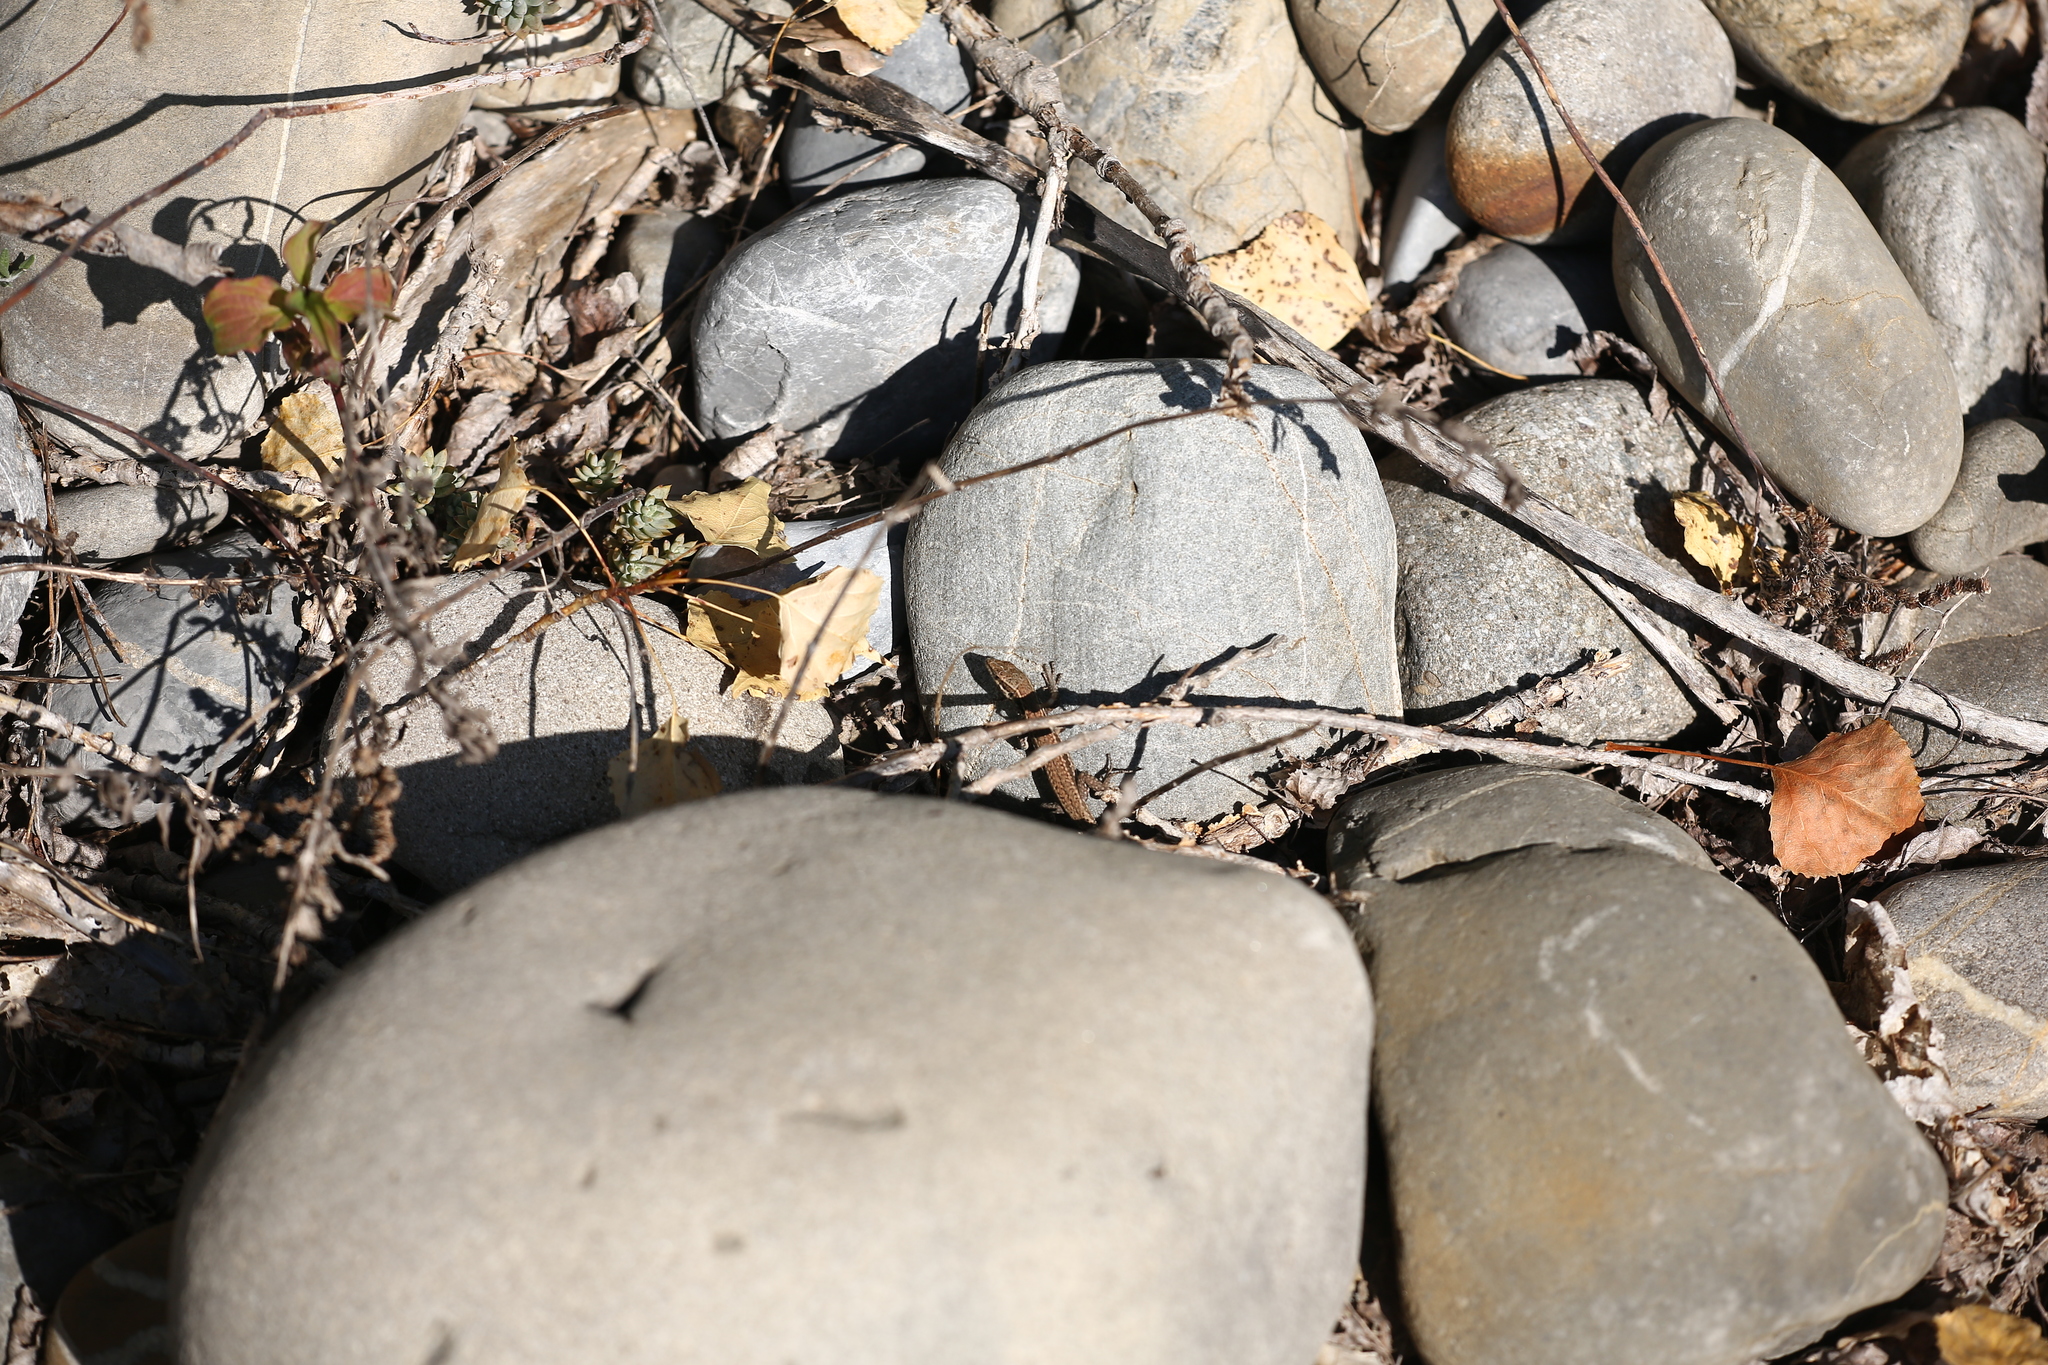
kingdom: Animalia
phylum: Chordata
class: Squamata
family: Lacertidae
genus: Podarcis
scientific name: Podarcis muralis
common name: Common wall lizard
